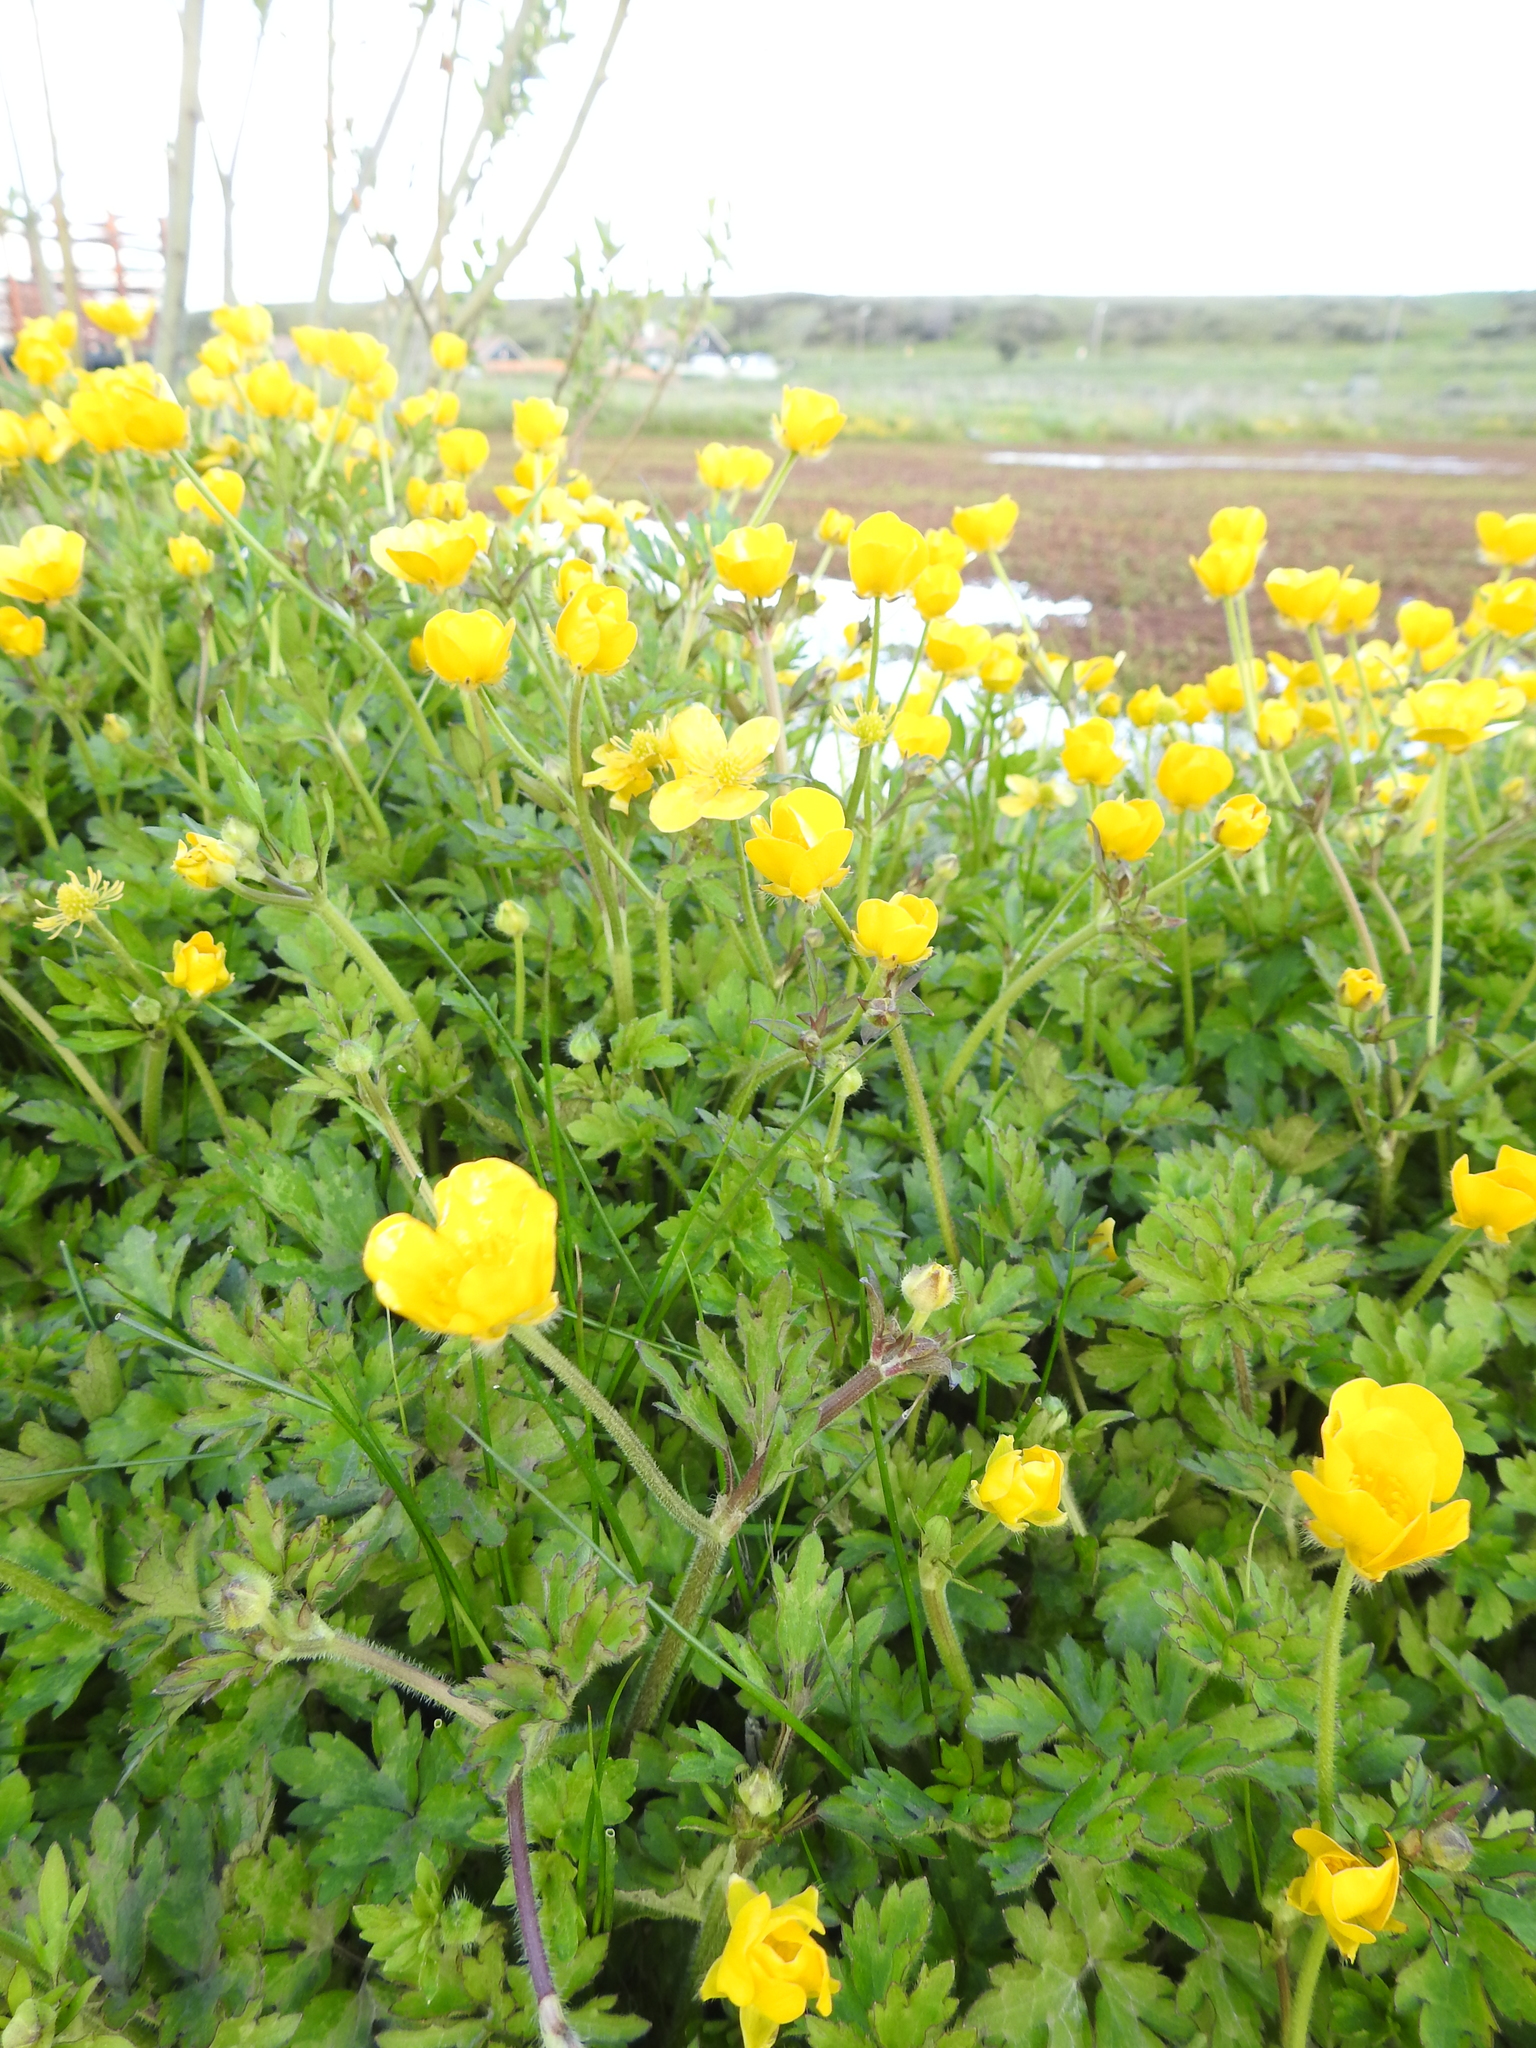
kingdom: Plantae
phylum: Tracheophyta
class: Magnoliopsida
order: Ranunculales
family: Ranunculaceae
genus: Ranunculus
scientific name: Ranunculus repens
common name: Creeping buttercup
